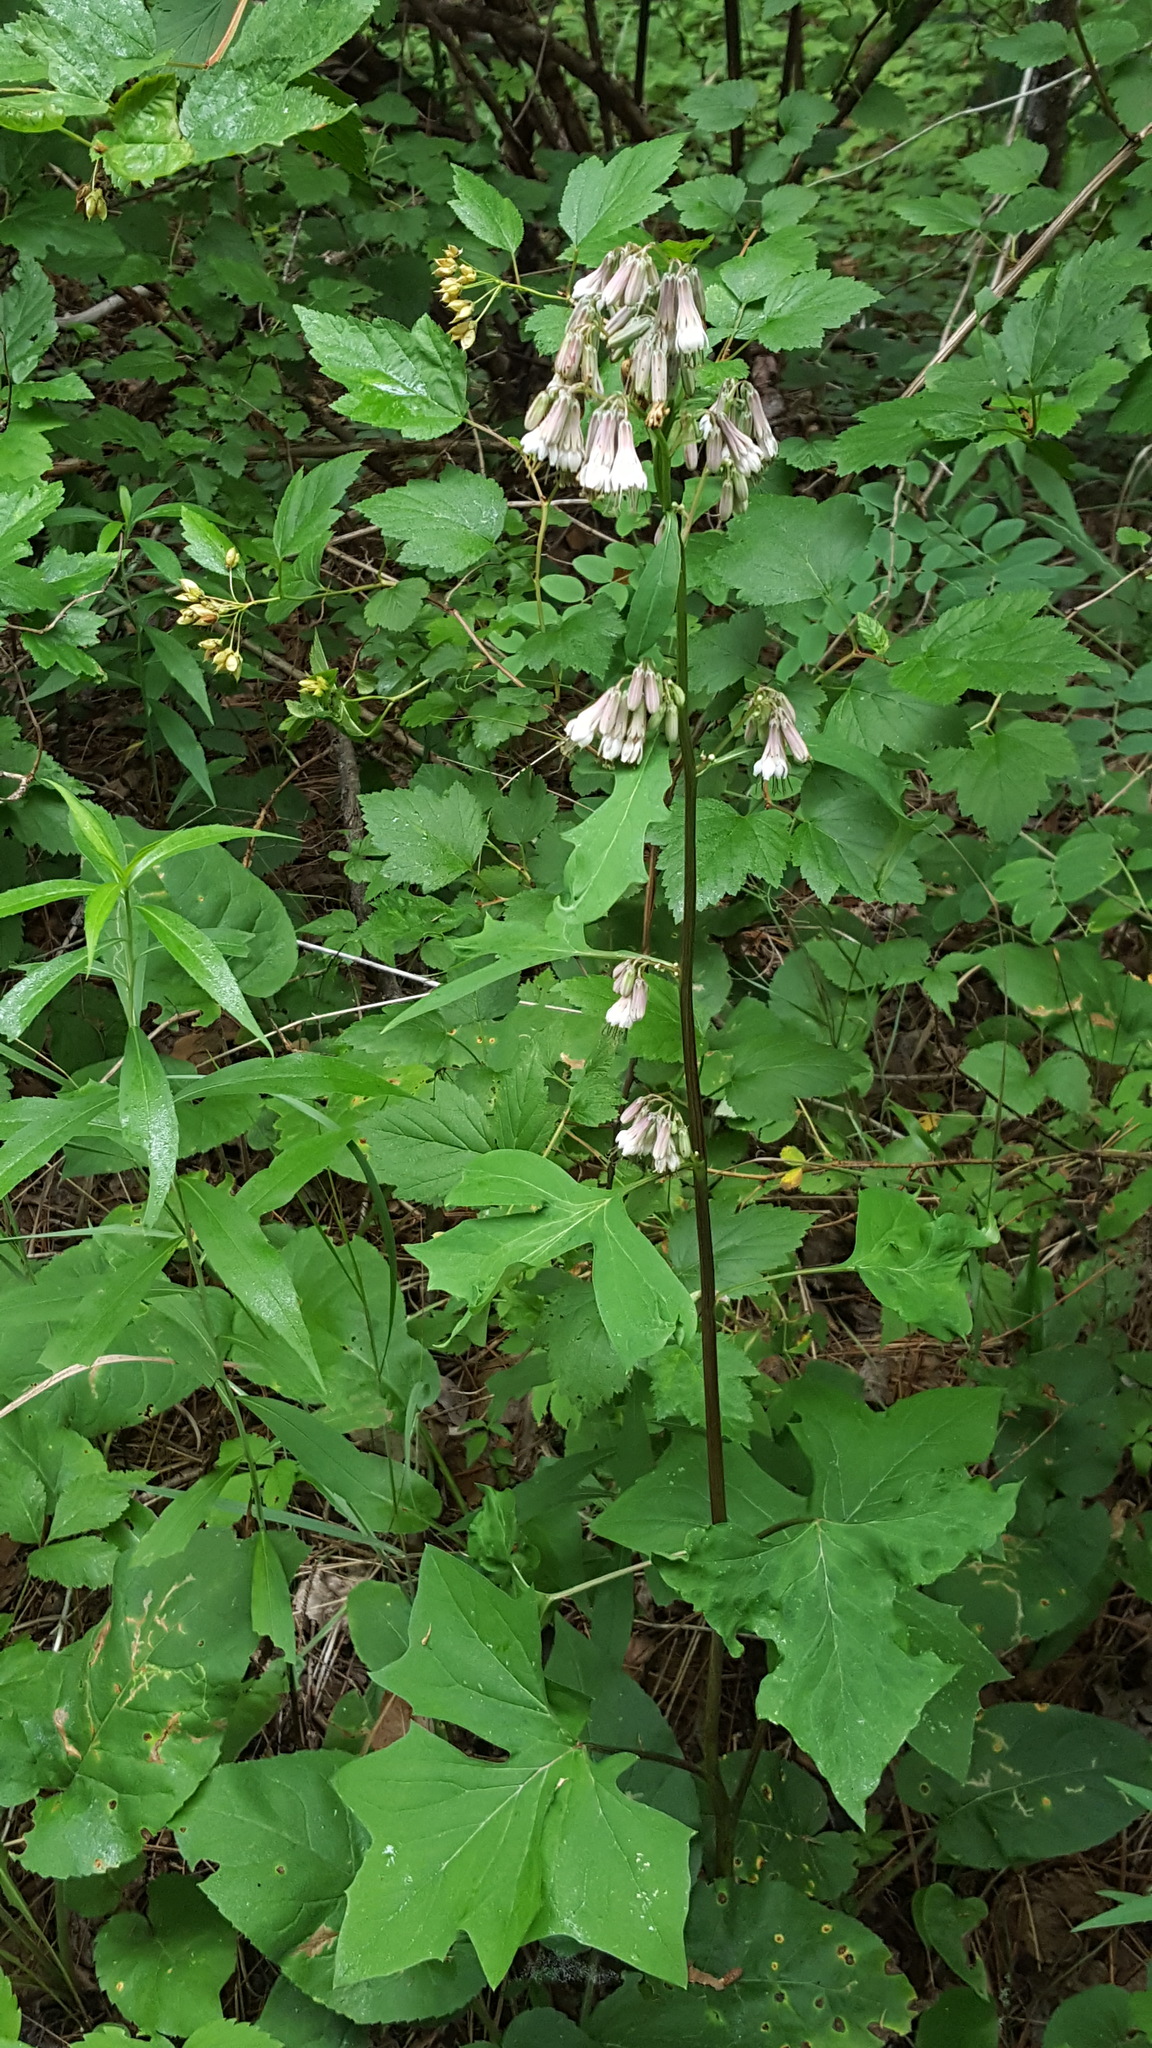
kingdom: Plantae
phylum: Tracheophyta
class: Magnoliopsida
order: Asterales
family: Asteraceae
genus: Nabalus
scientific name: Nabalus albus
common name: White rattlesnakeroot
